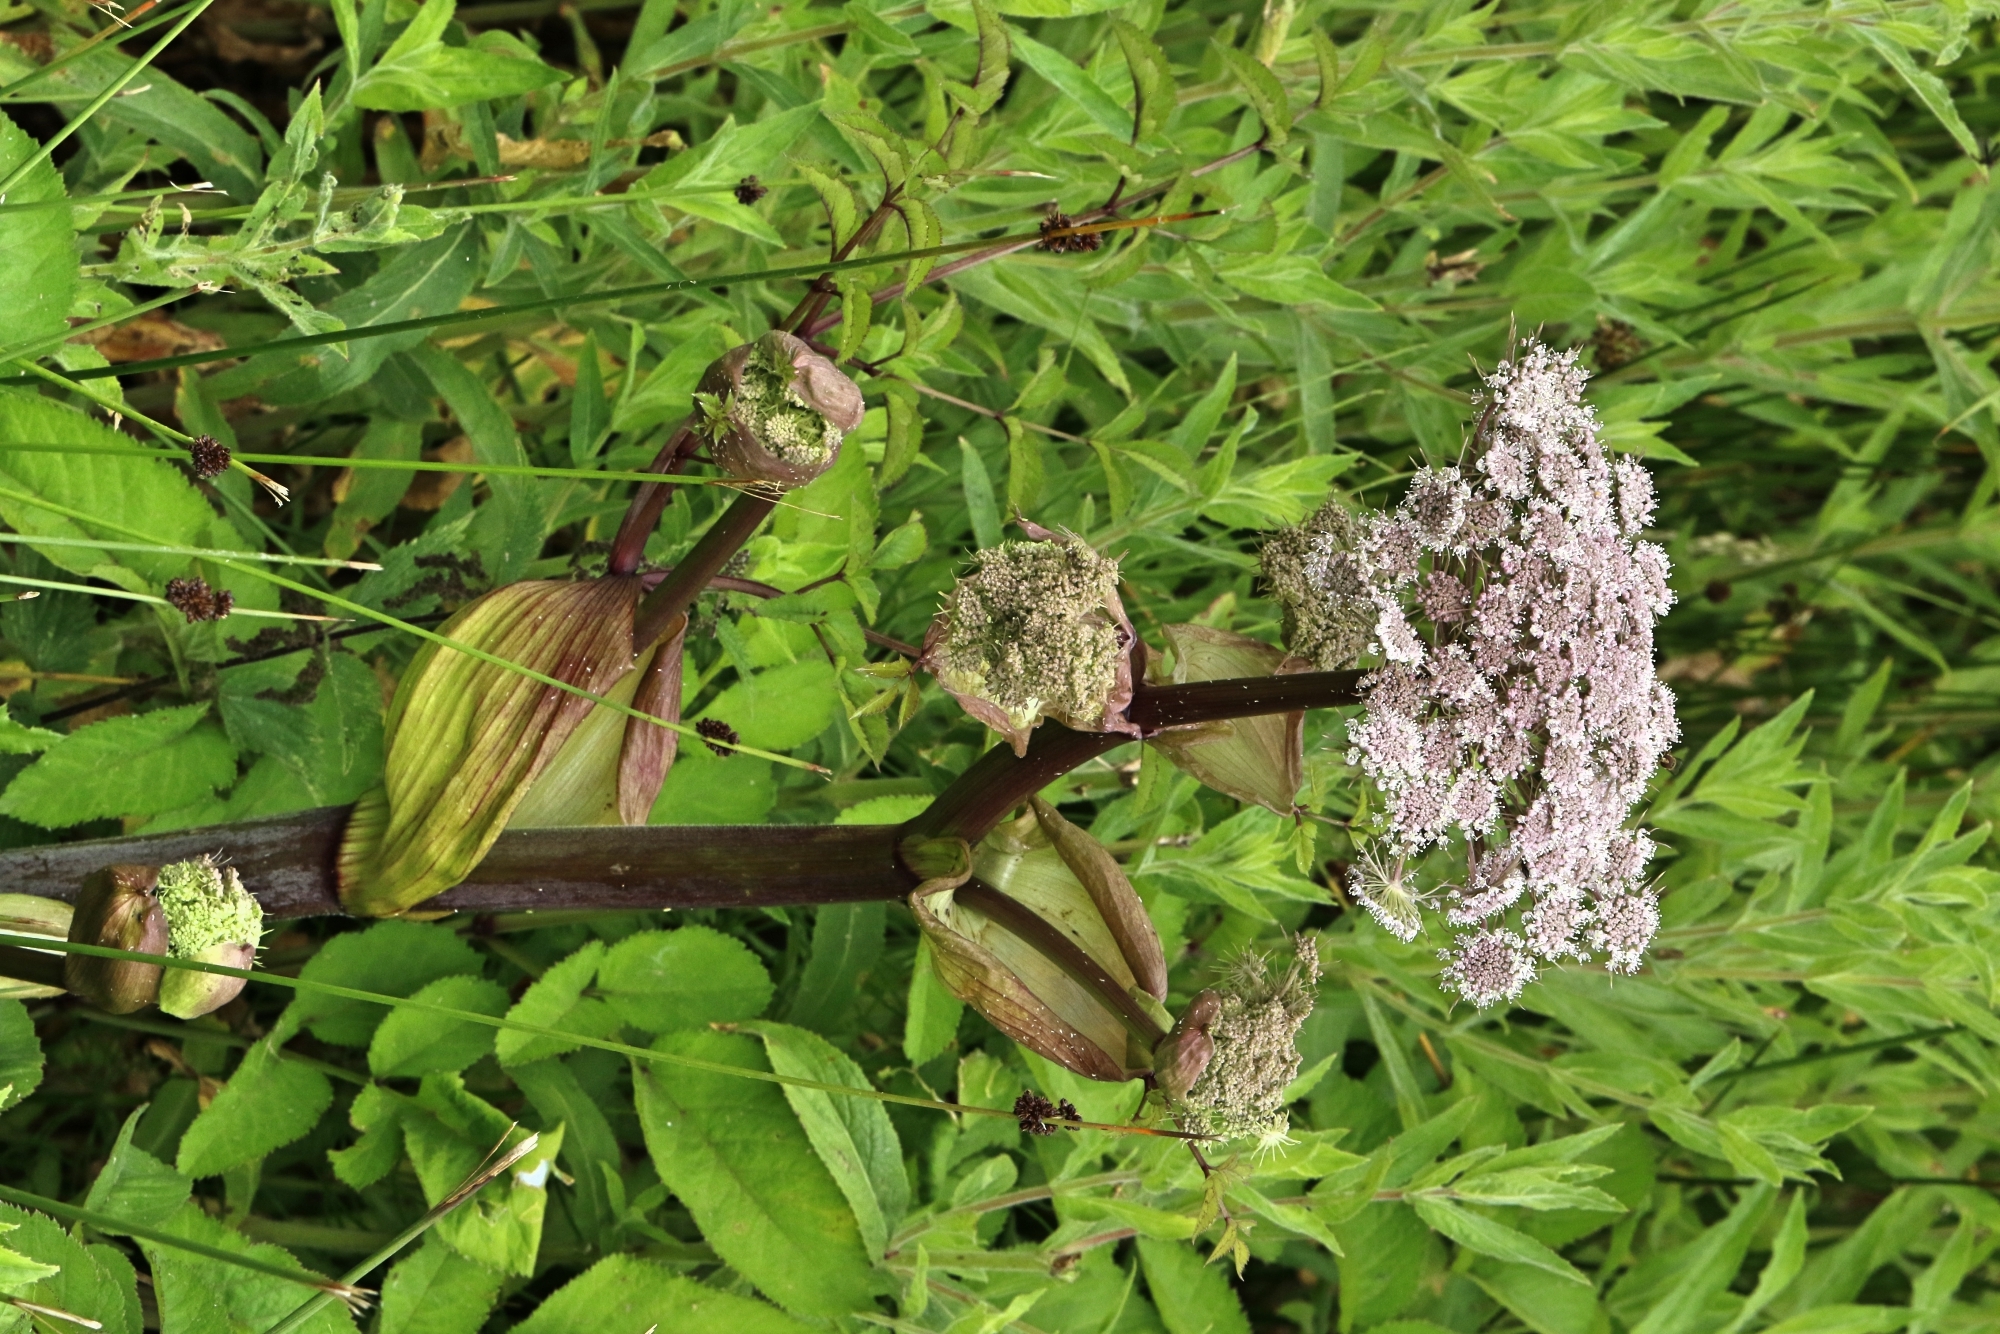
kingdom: Plantae
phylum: Tracheophyta
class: Magnoliopsida
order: Apiales
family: Apiaceae
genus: Angelica
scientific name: Angelica sylvestris
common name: Wild angelica
